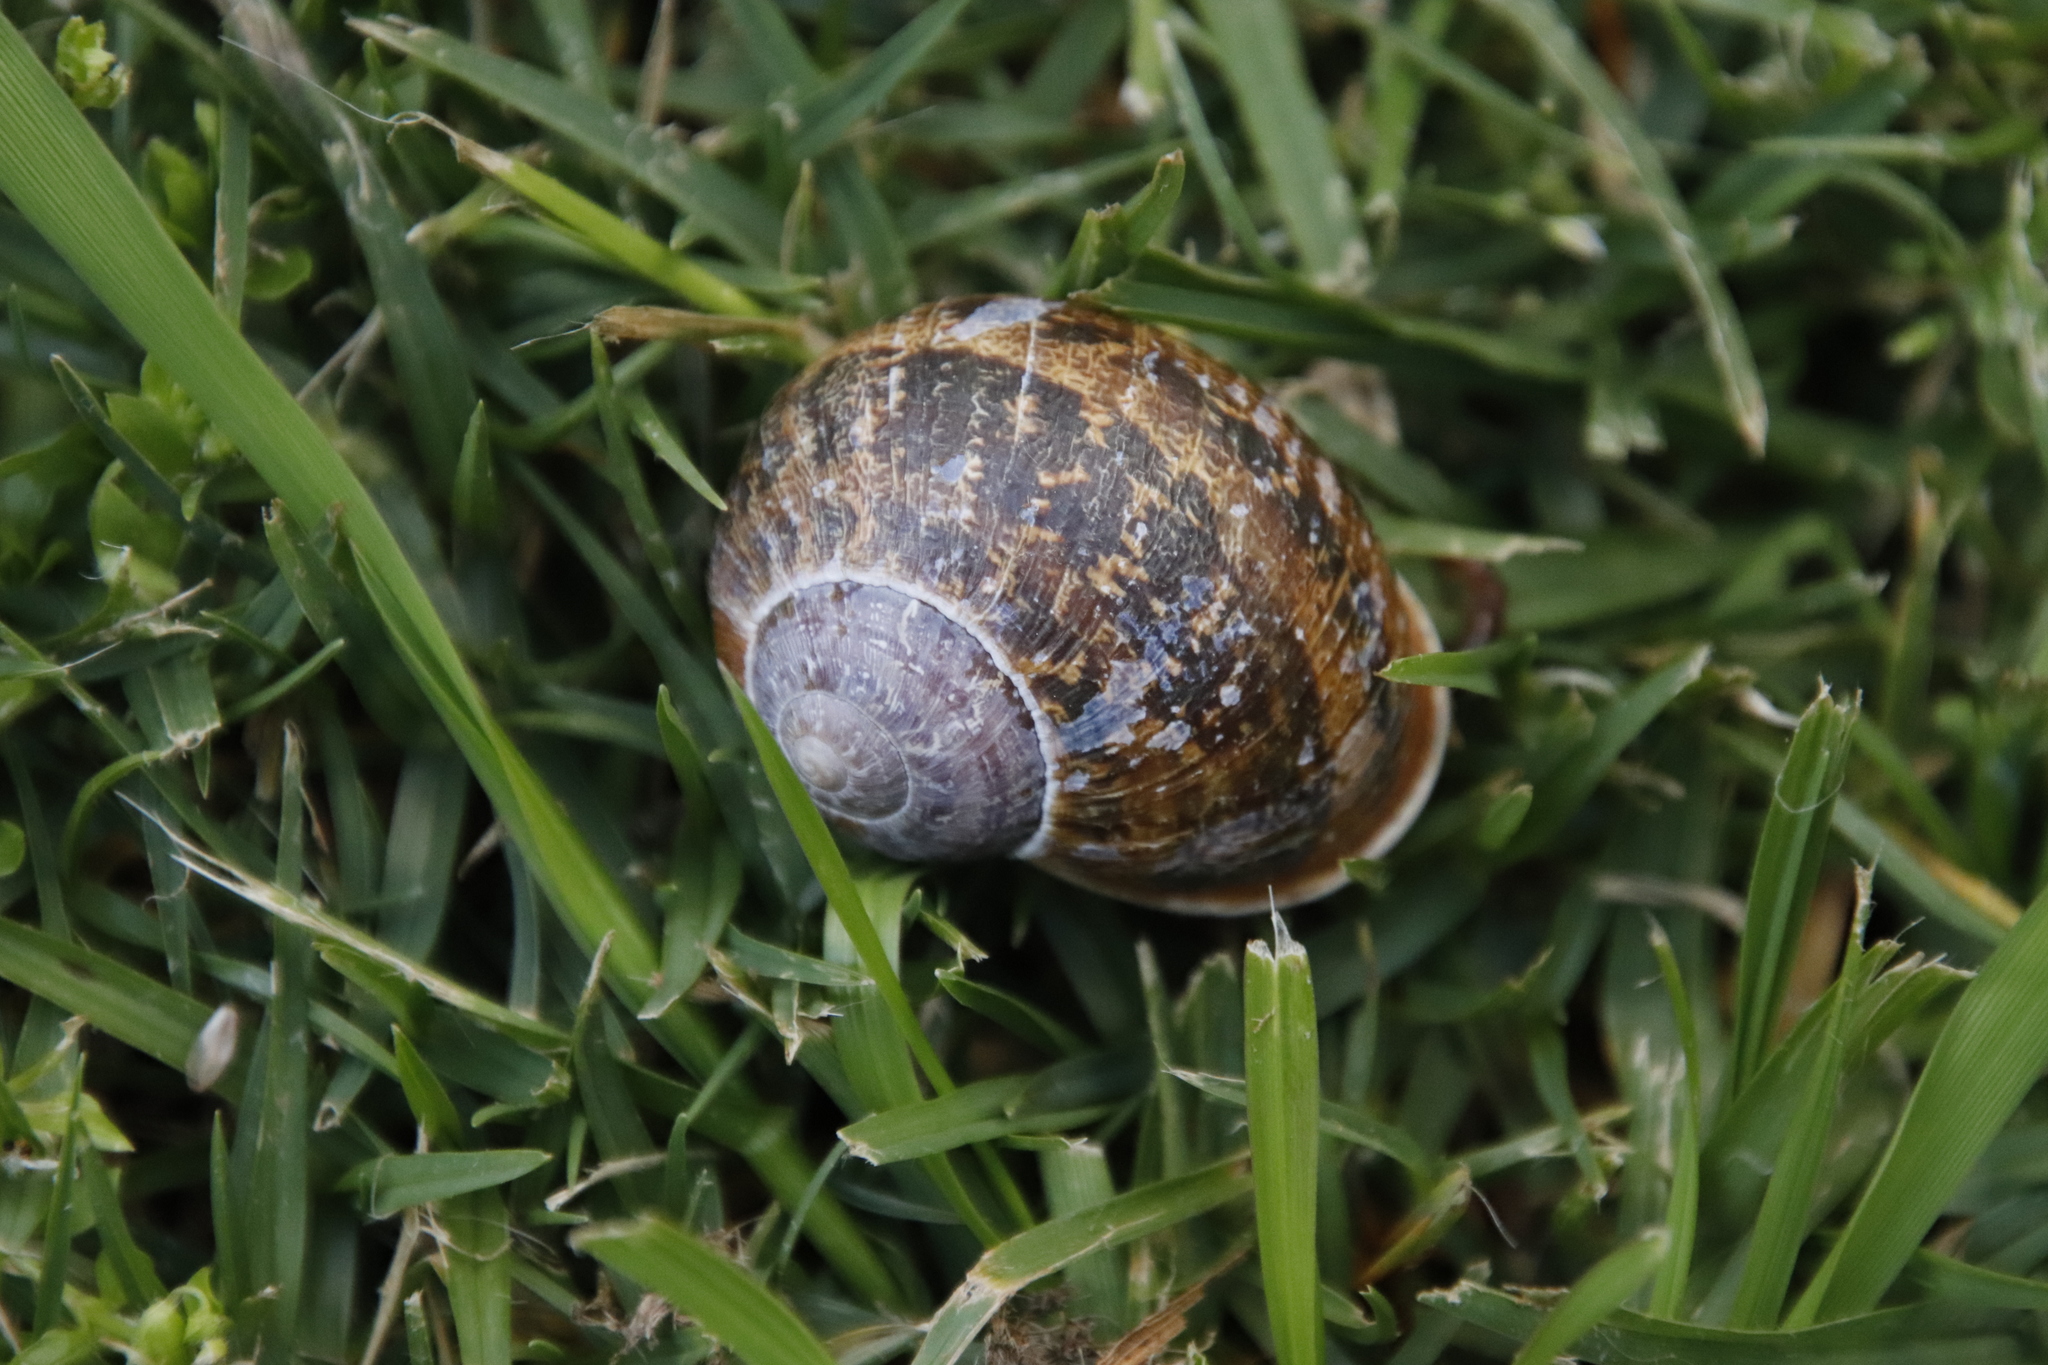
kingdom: Animalia
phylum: Mollusca
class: Gastropoda
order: Stylommatophora
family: Helicidae
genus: Cornu
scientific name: Cornu aspersum
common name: Brown garden snail
